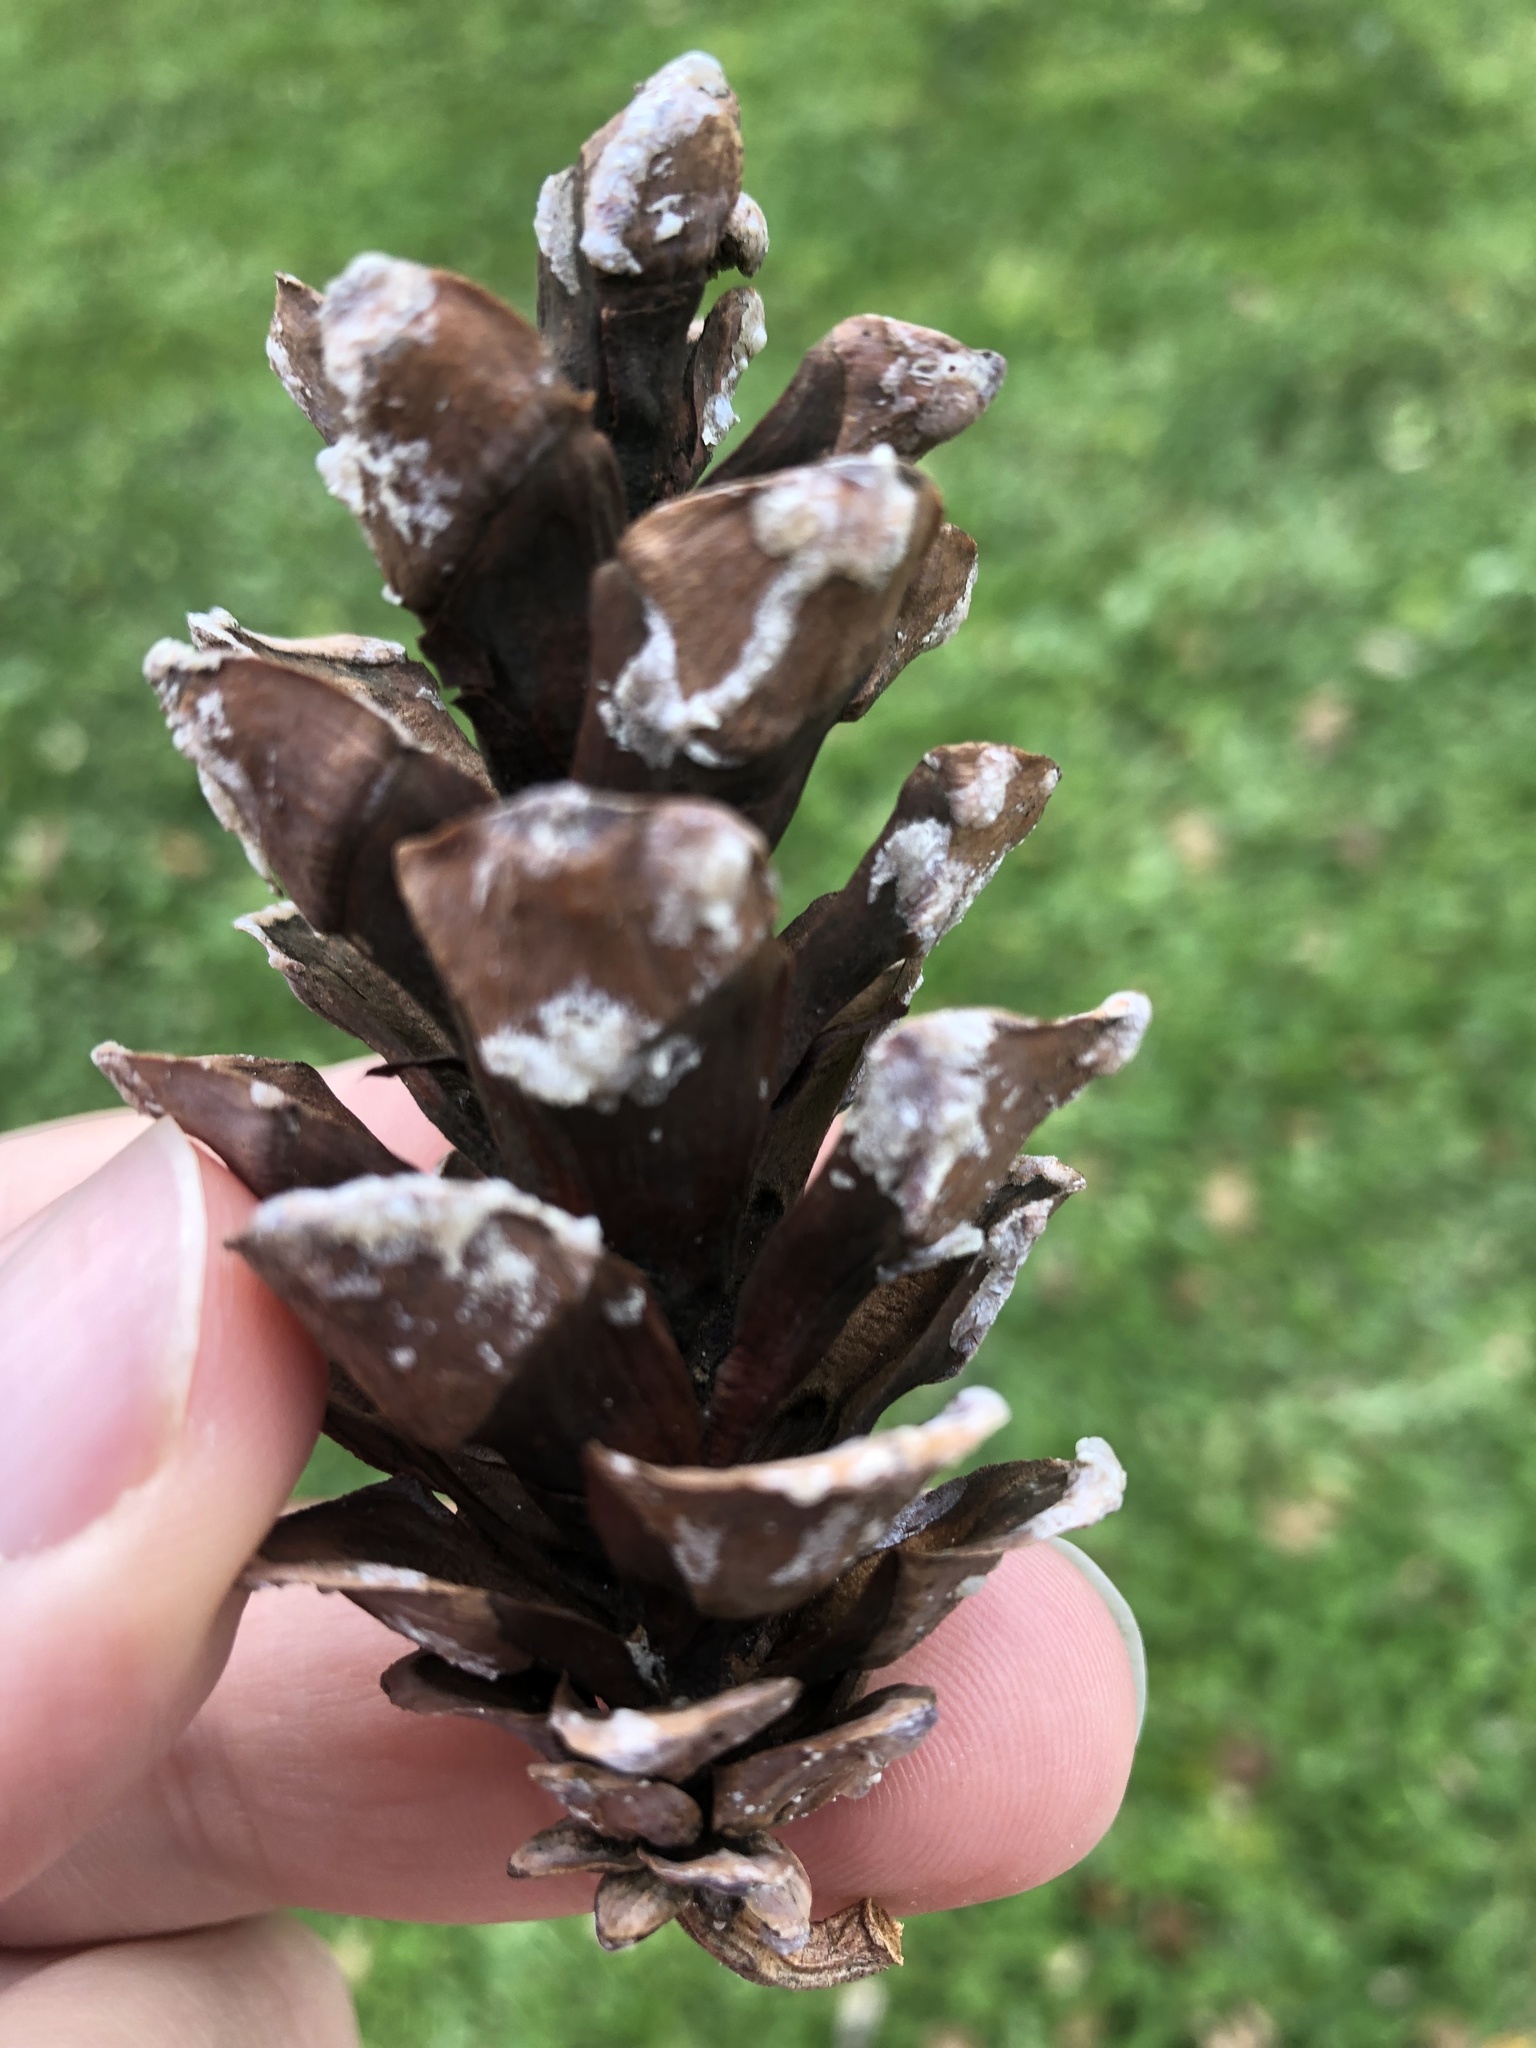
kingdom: Plantae
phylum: Tracheophyta
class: Pinopsida
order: Pinales
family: Pinaceae
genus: Pinus
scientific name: Pinus strobus
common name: Weymouth pine
